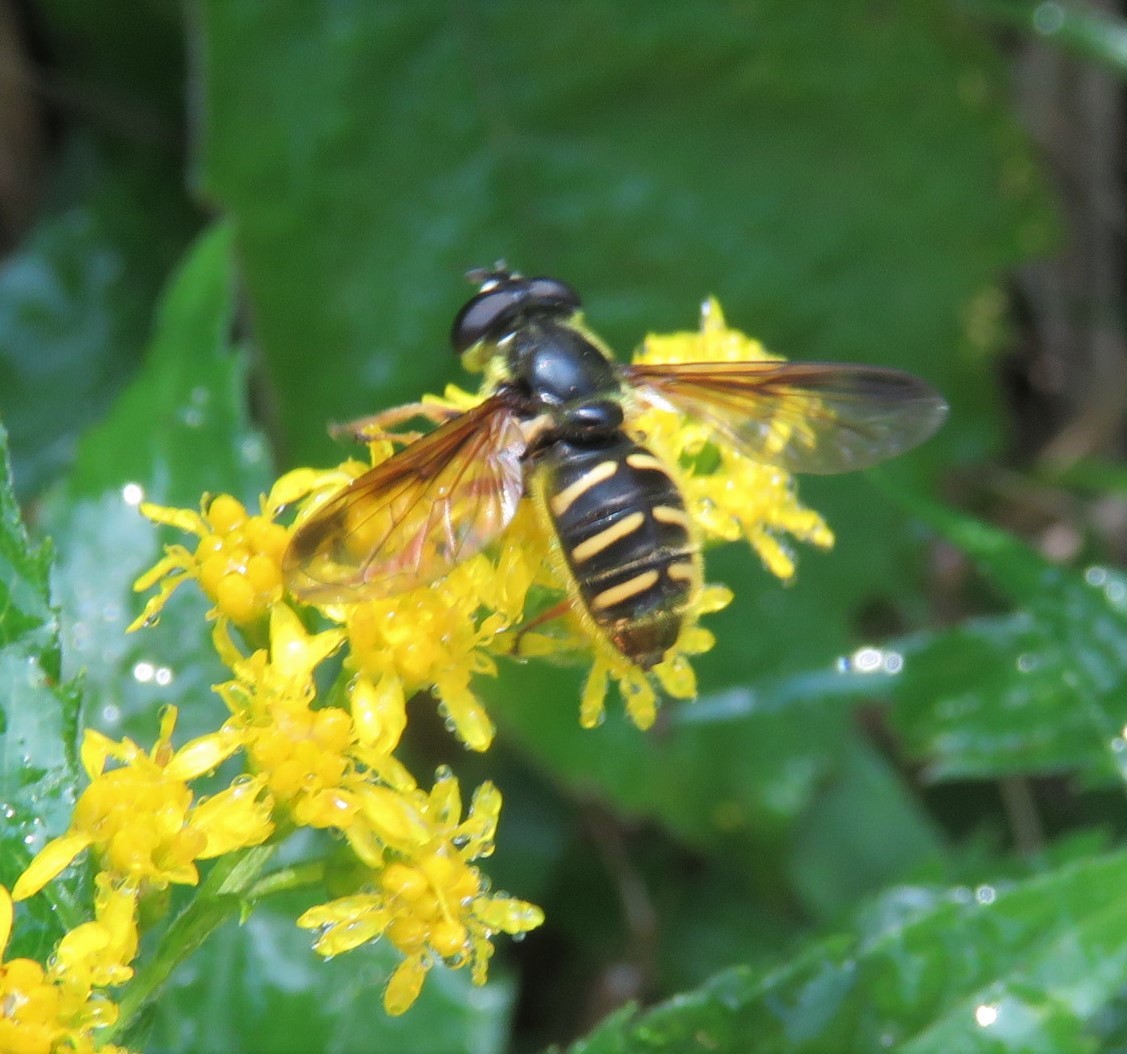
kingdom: Animalia
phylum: Arthropoda
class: Insecta
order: Diptera
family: Syrphidae
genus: Sericomyia
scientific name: Sericomyia chrysotoxoides
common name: Oblique-banded pond fly
